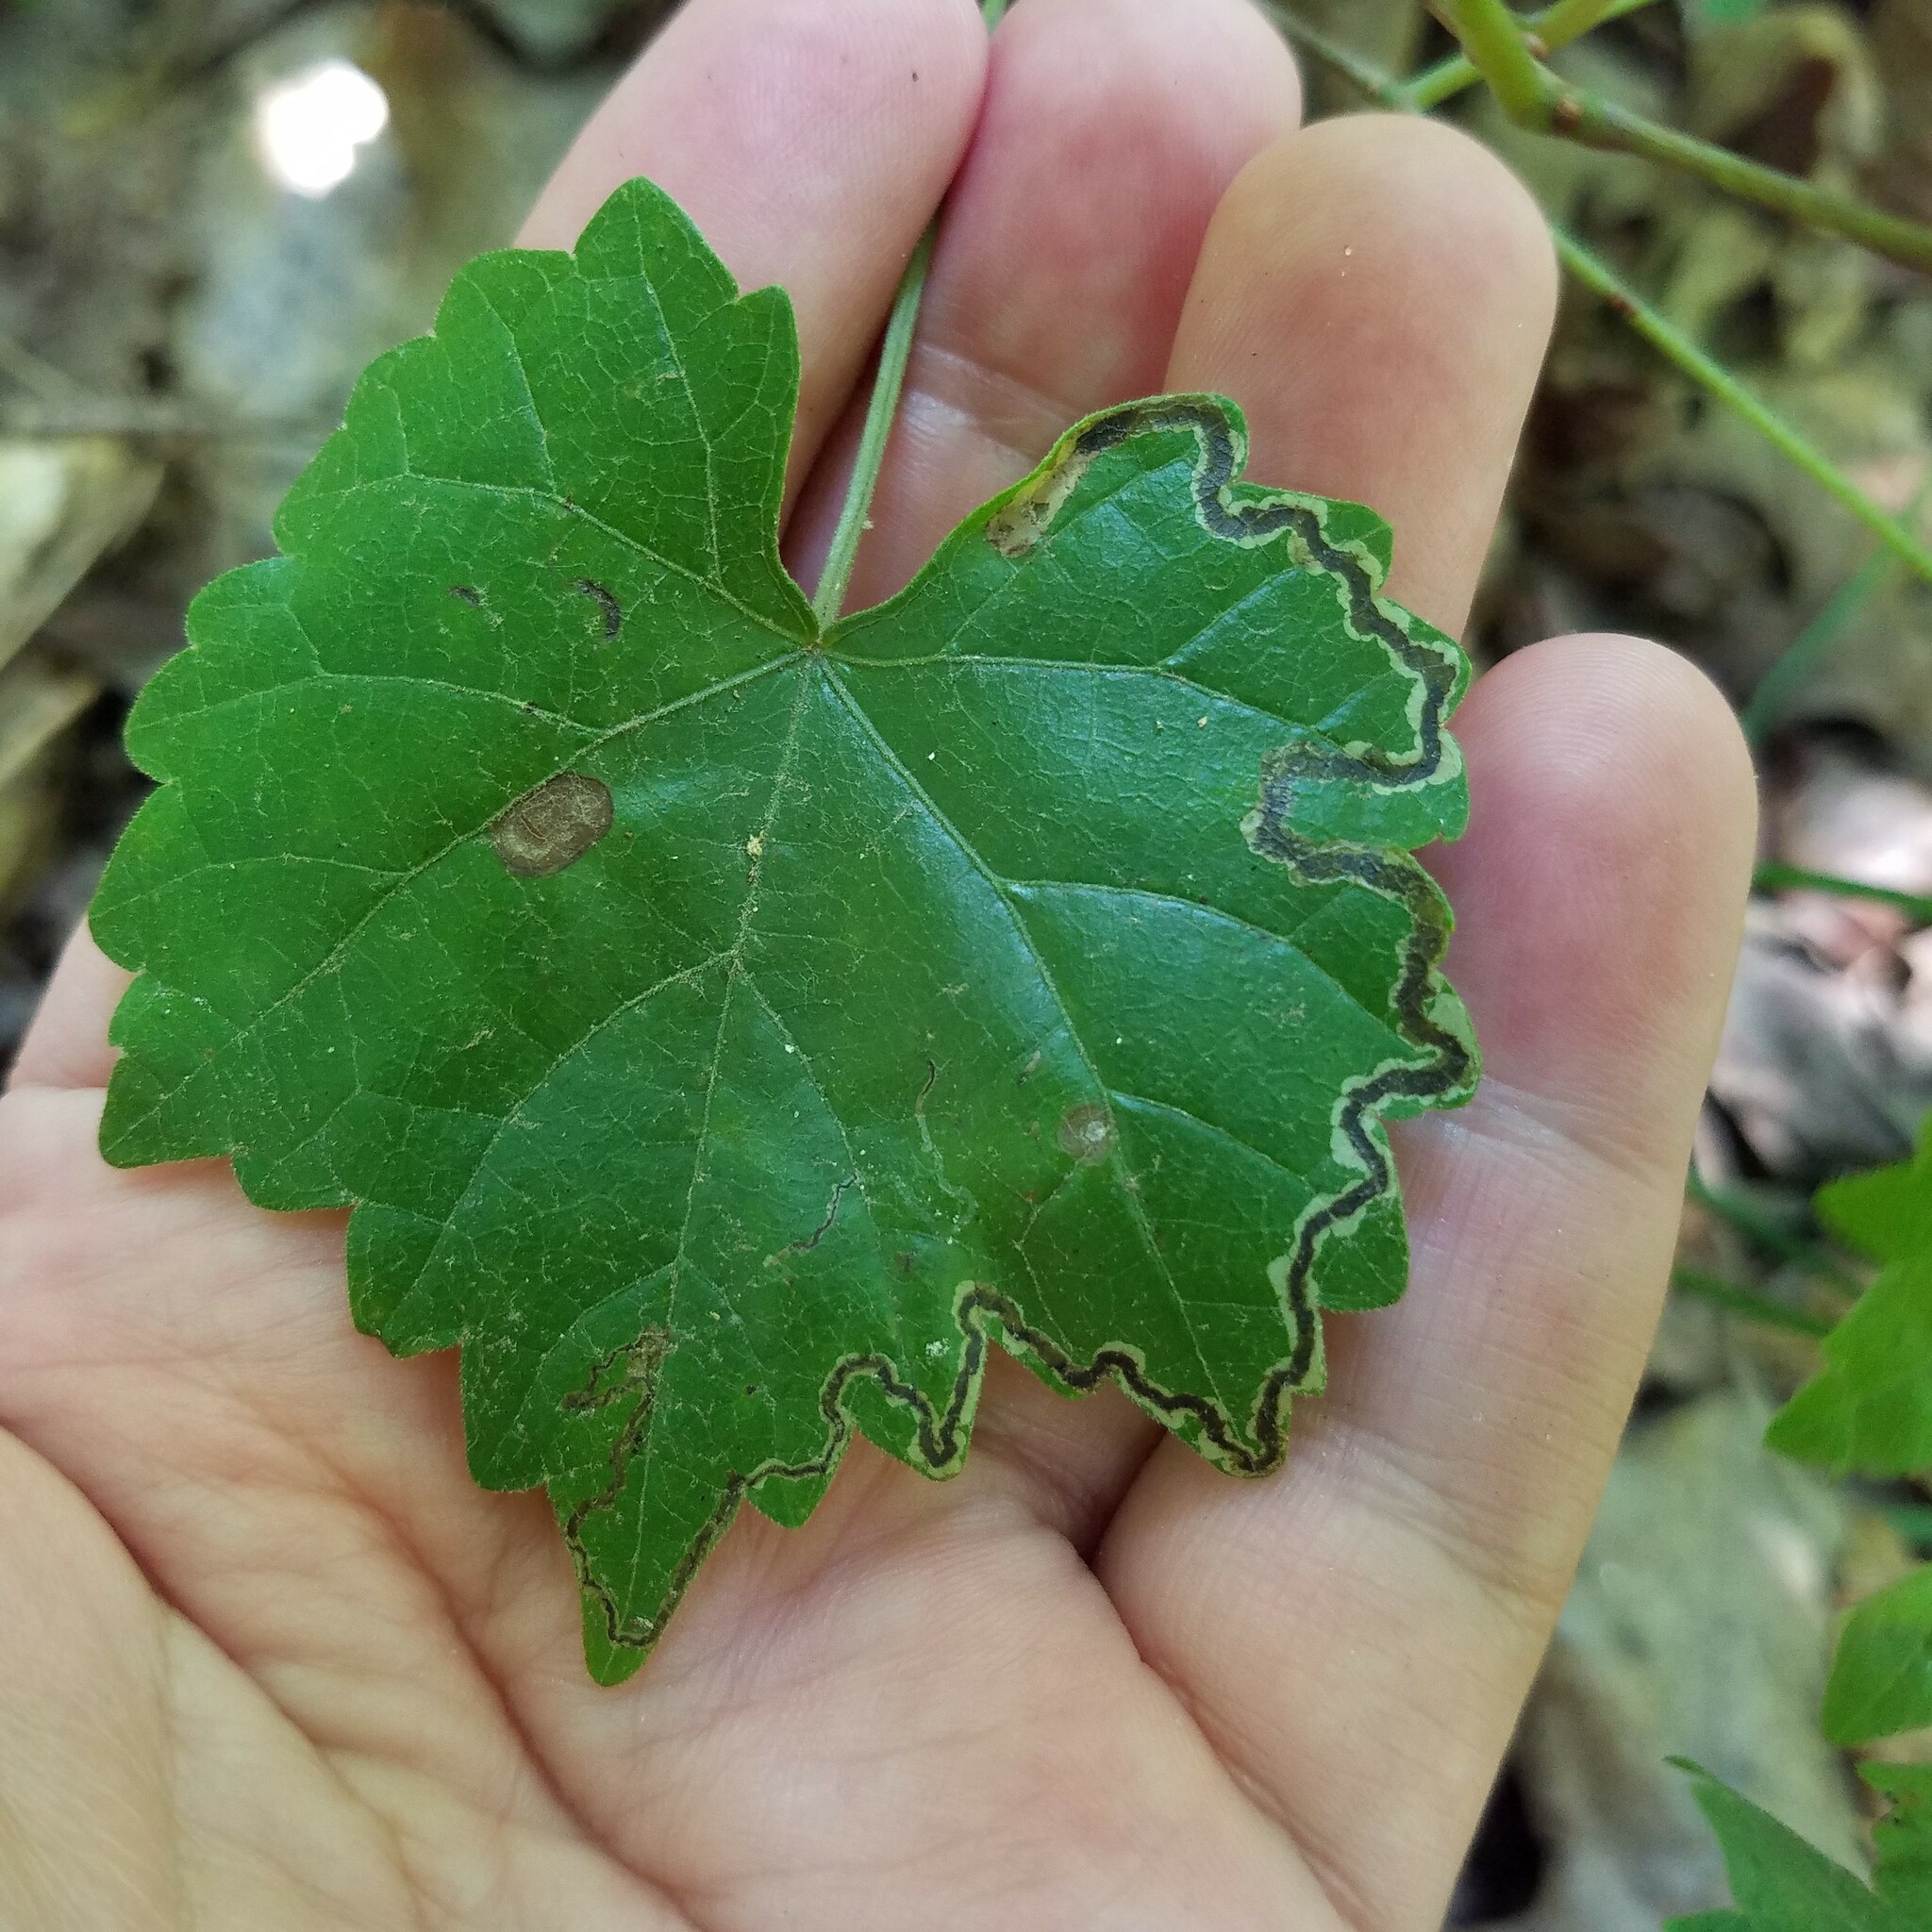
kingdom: Plantae
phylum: Tracheophyta
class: Magnoliopsida
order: Vitales
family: Vitaceae
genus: Vitis
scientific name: Vitis rotundifolia
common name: Muscadine grape
